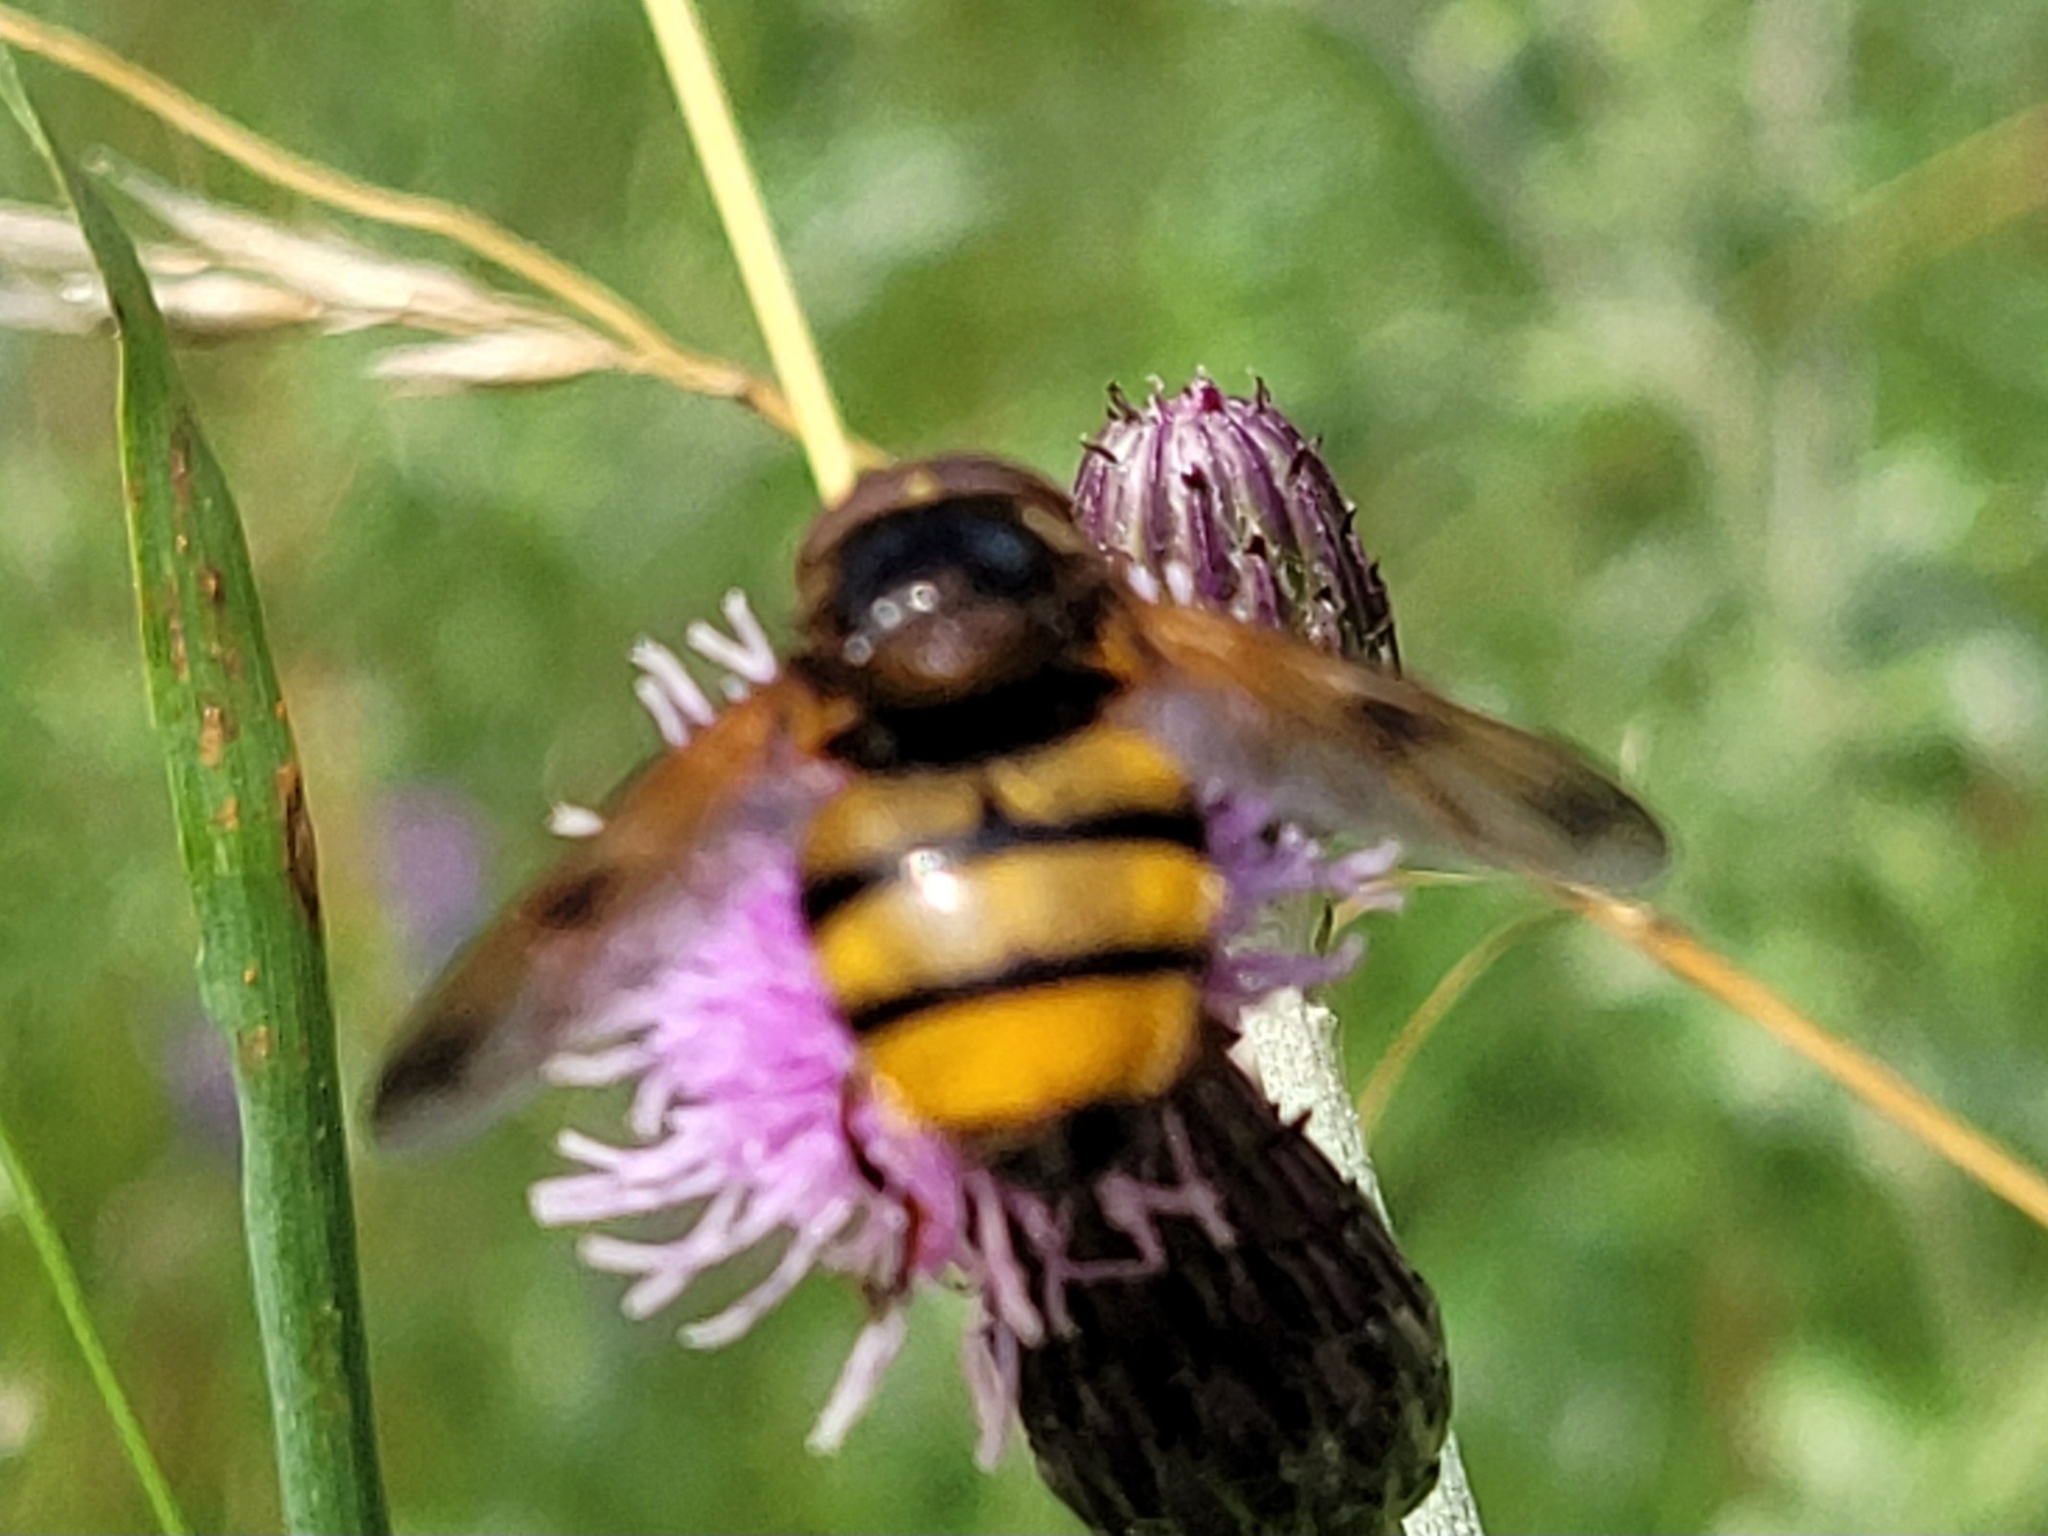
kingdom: Animalia
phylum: Arthropoda
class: Insecta
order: Diptera
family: Syrphidae
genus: Volucella
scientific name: Volucella inanis
